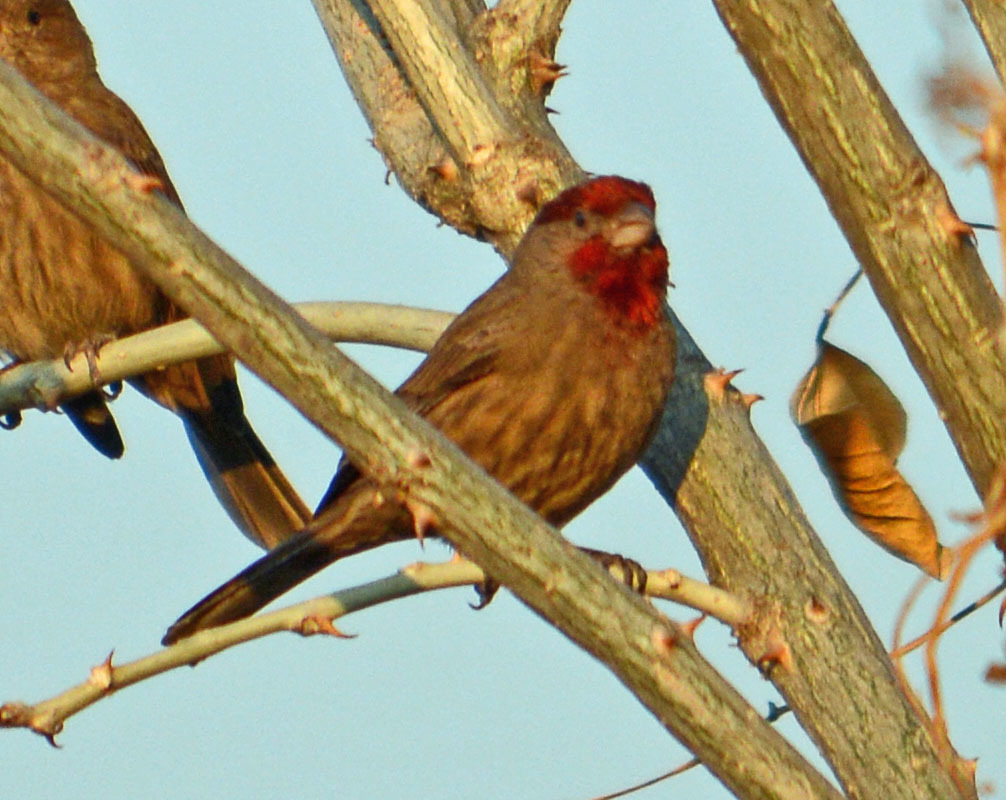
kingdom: Animalia
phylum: Chordata
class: Aves
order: Passeriformes
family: Fringillidae
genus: Haemorhous
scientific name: Haemorhous mexicanus
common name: House finch
